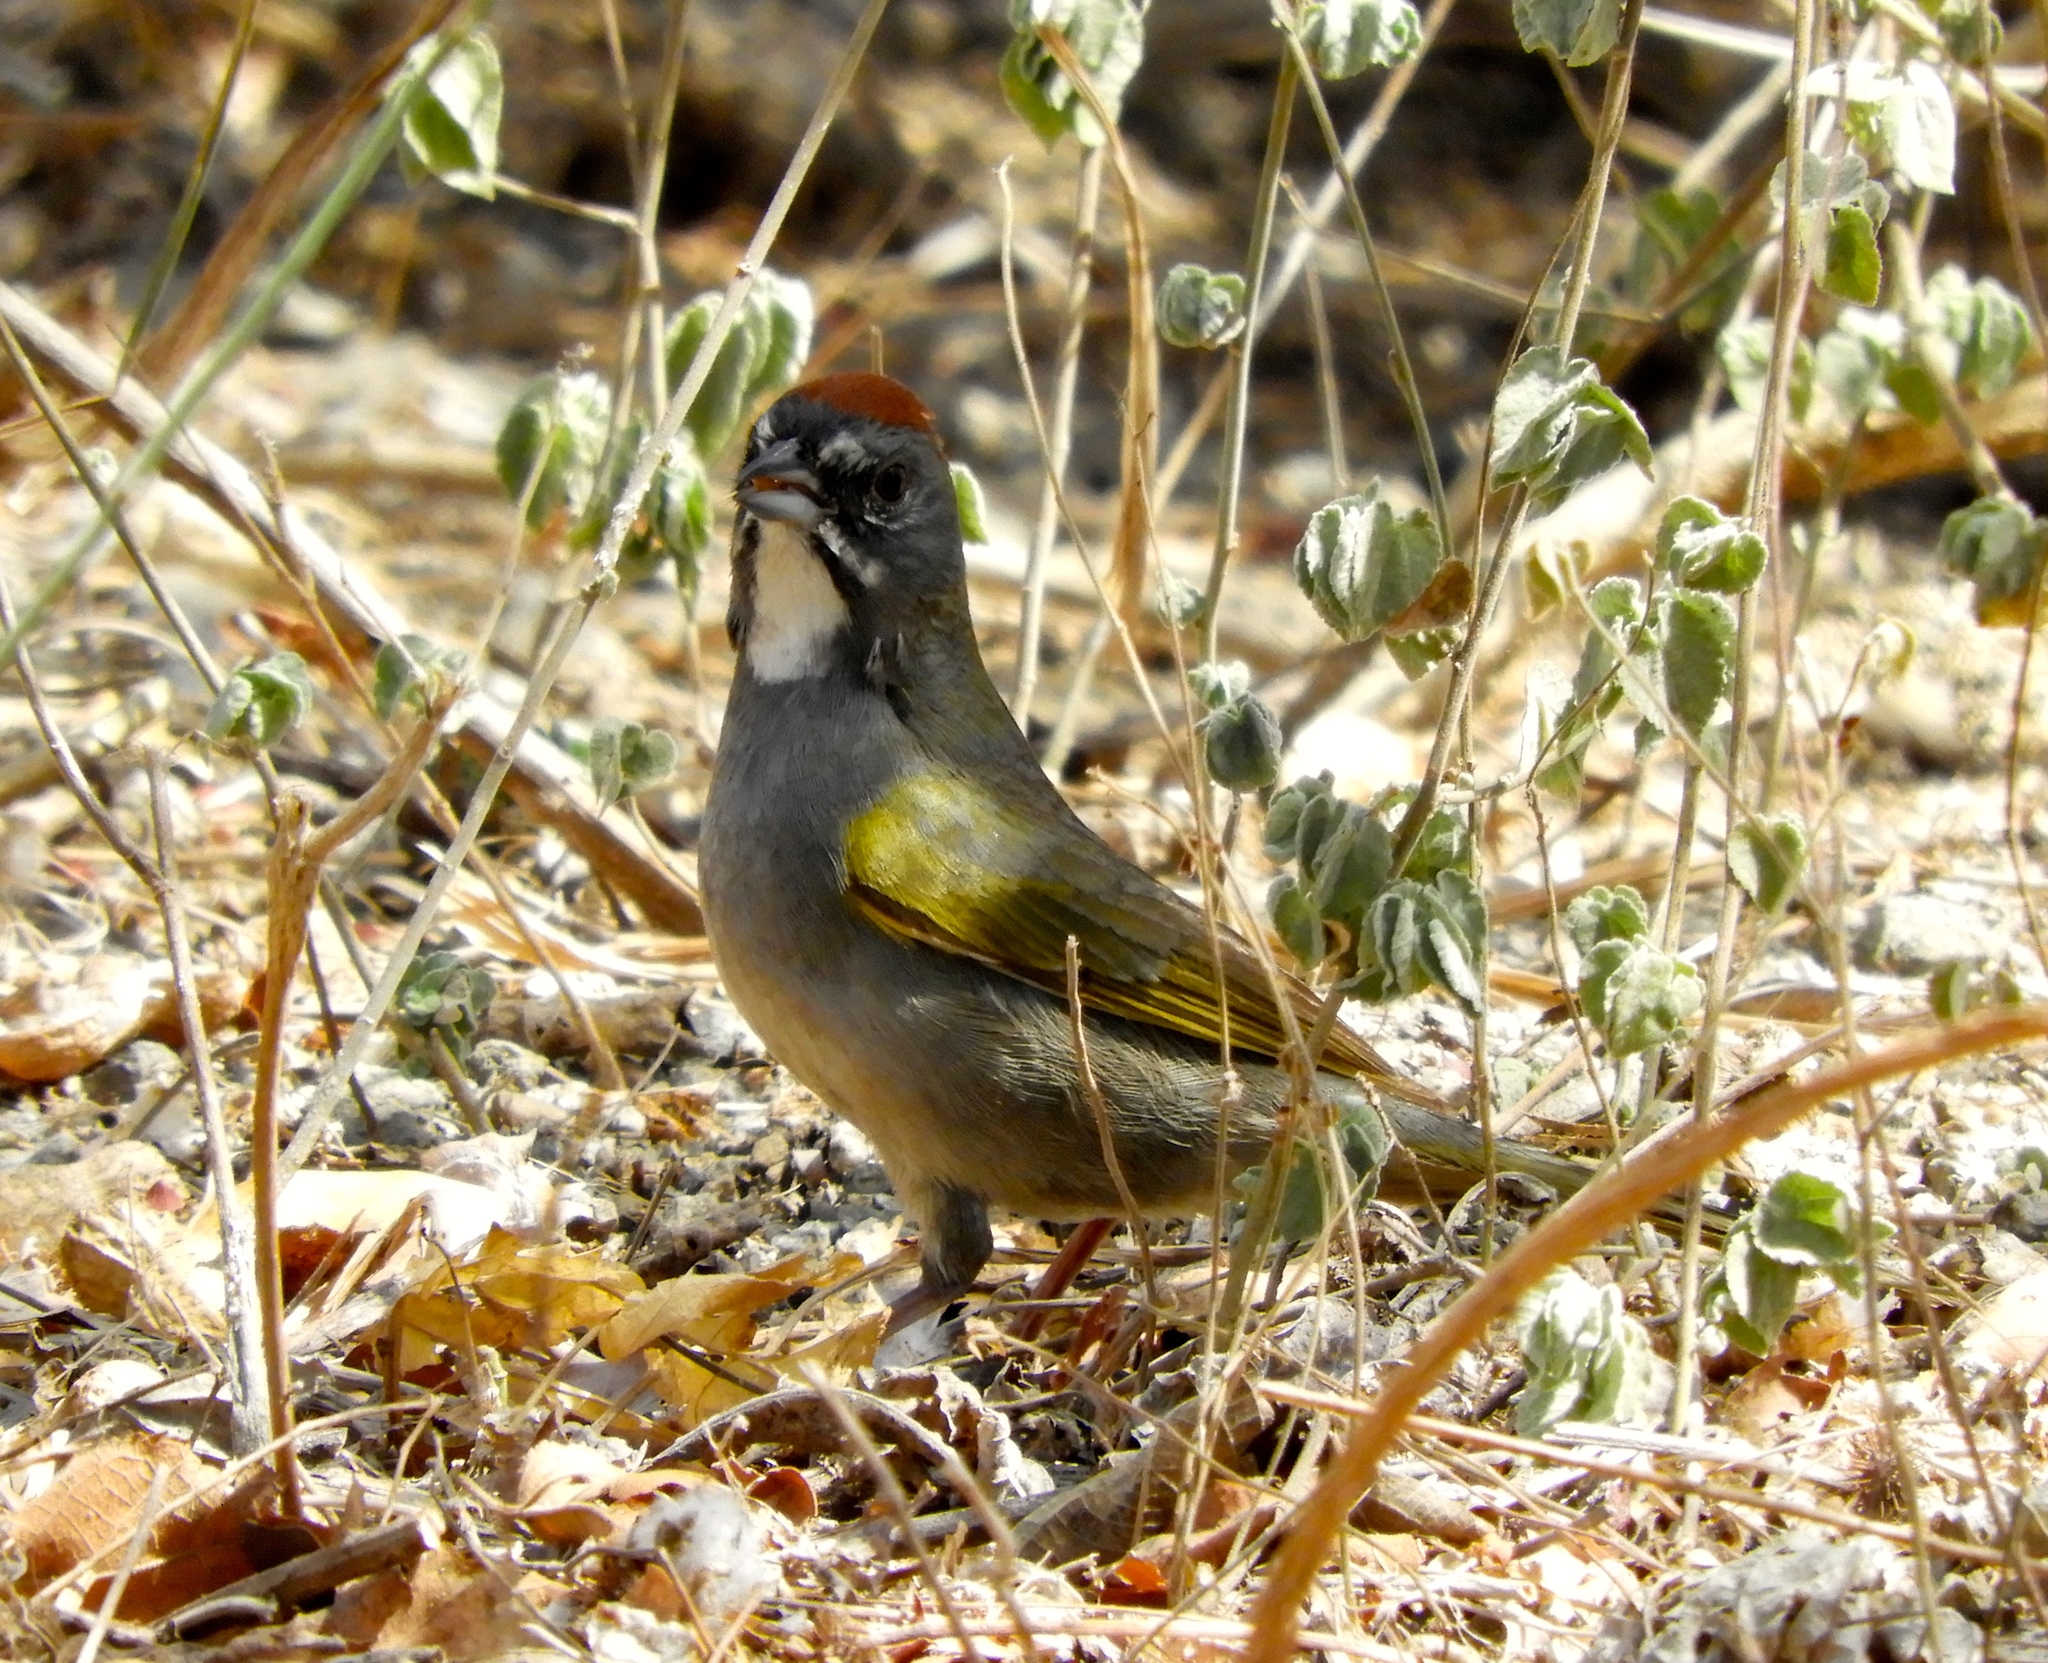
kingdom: Animalia
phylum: Chordata
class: Aves
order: Passeriformes
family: Passerellidae
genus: Pipilo
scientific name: Pipilo chlorurus
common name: Green-tailed towhee
